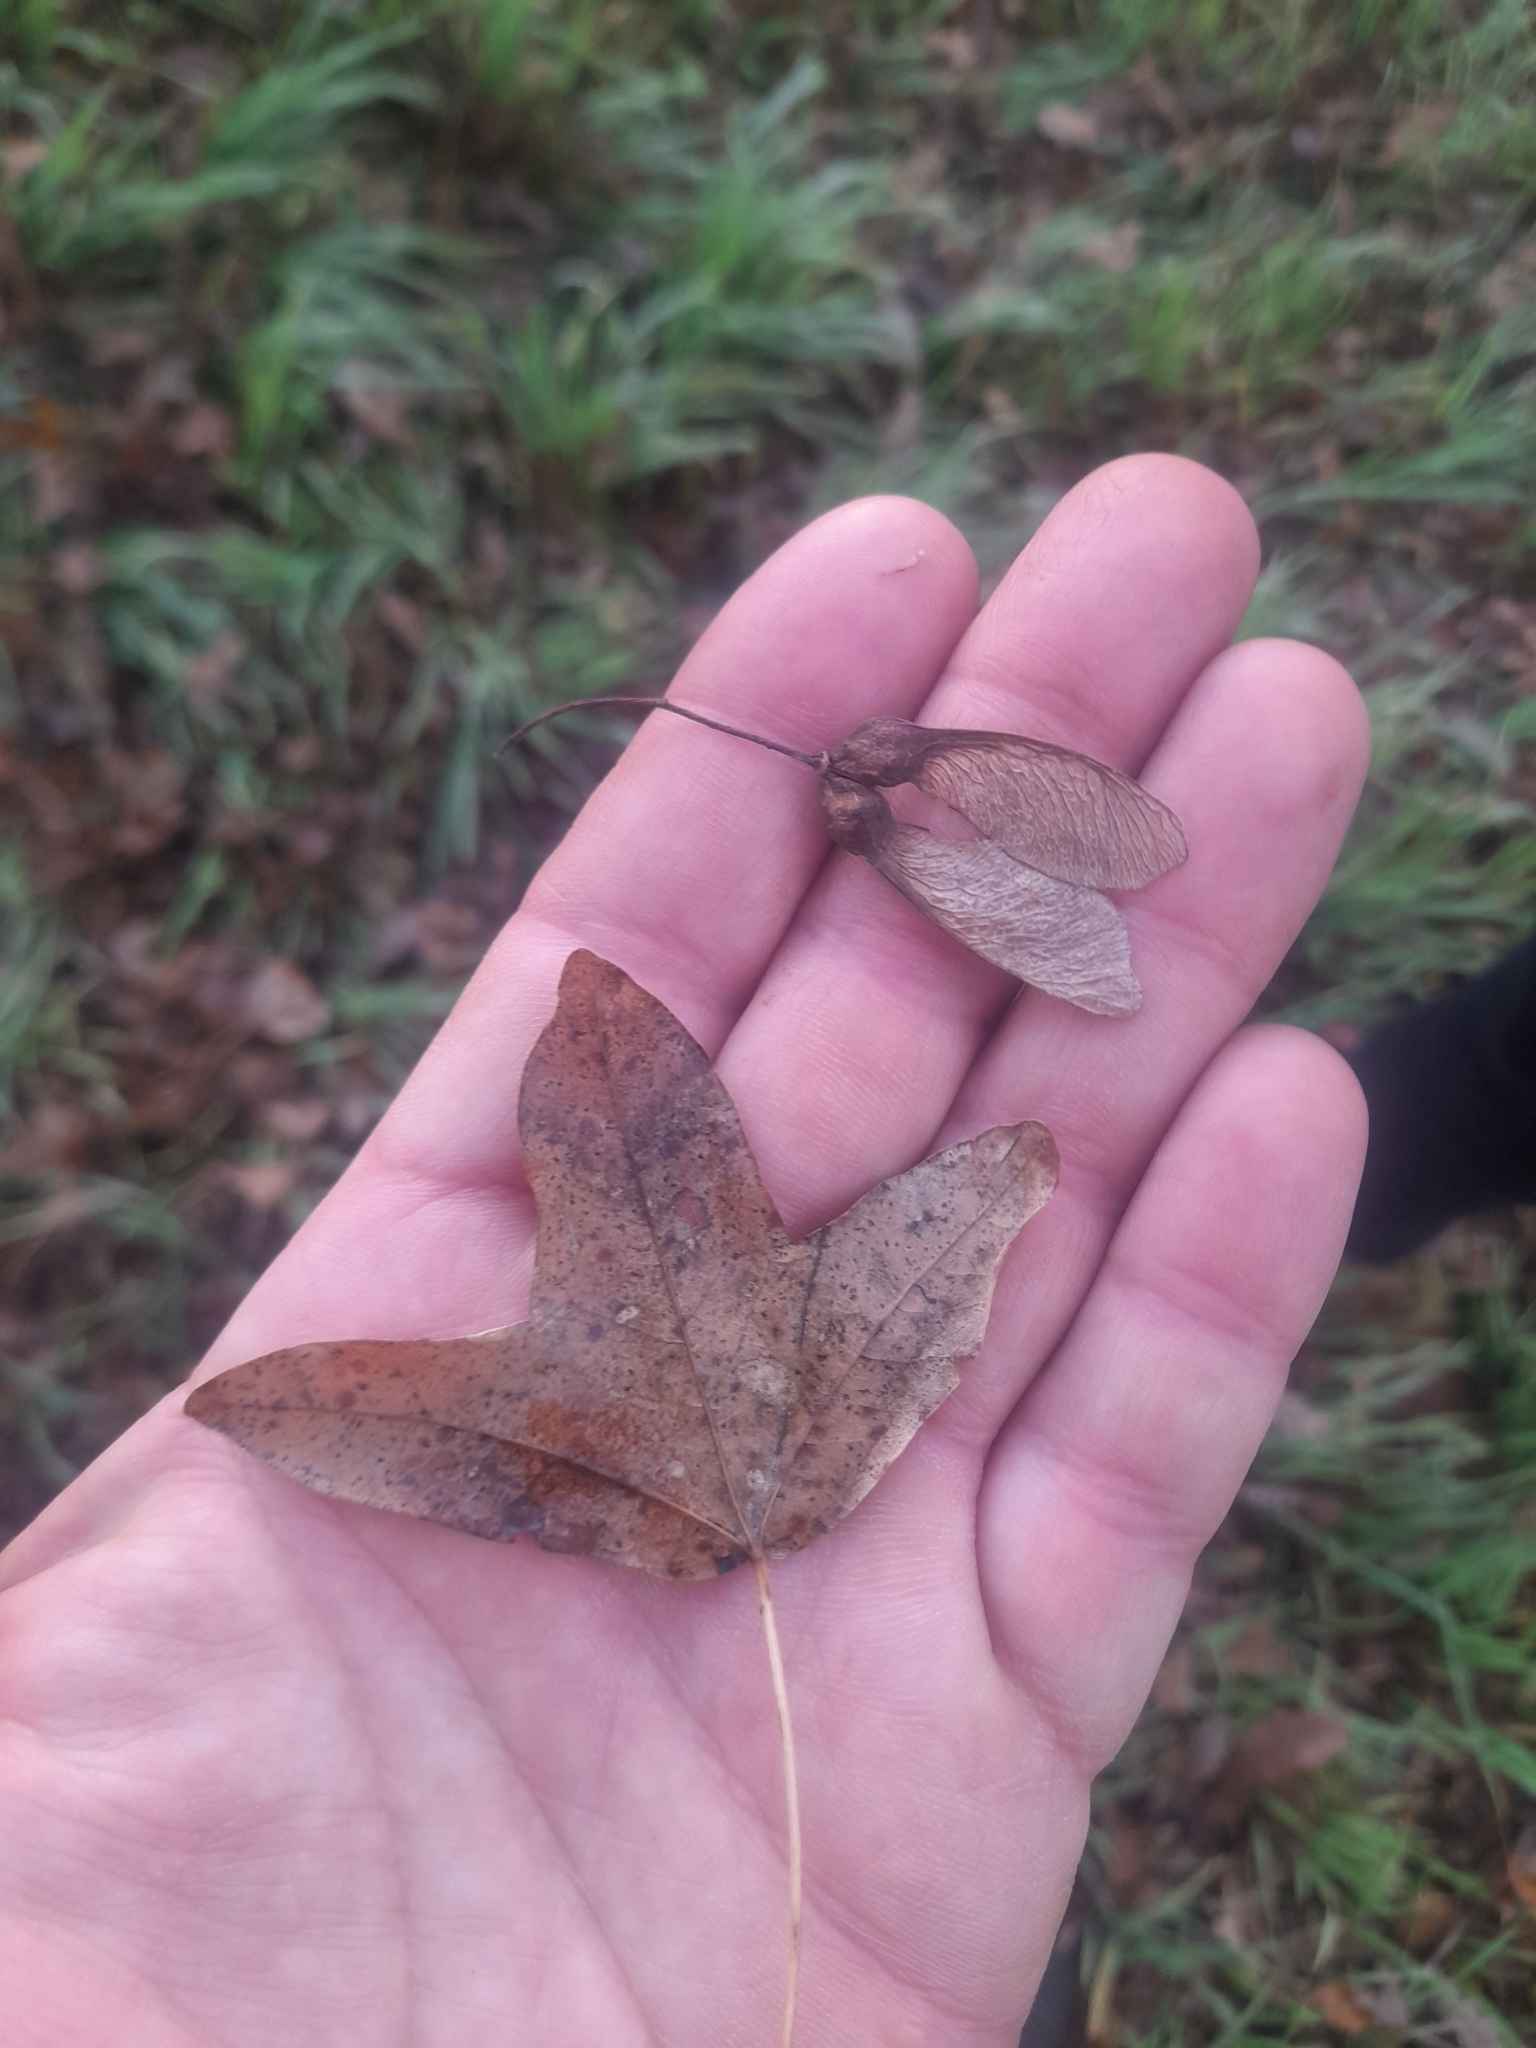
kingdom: Plantae
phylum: Tracheophyta
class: Magnoliopsida
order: Sapindales
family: Sapindaceae
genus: Acer
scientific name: Acer monspessulanum
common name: Montpellier maple
